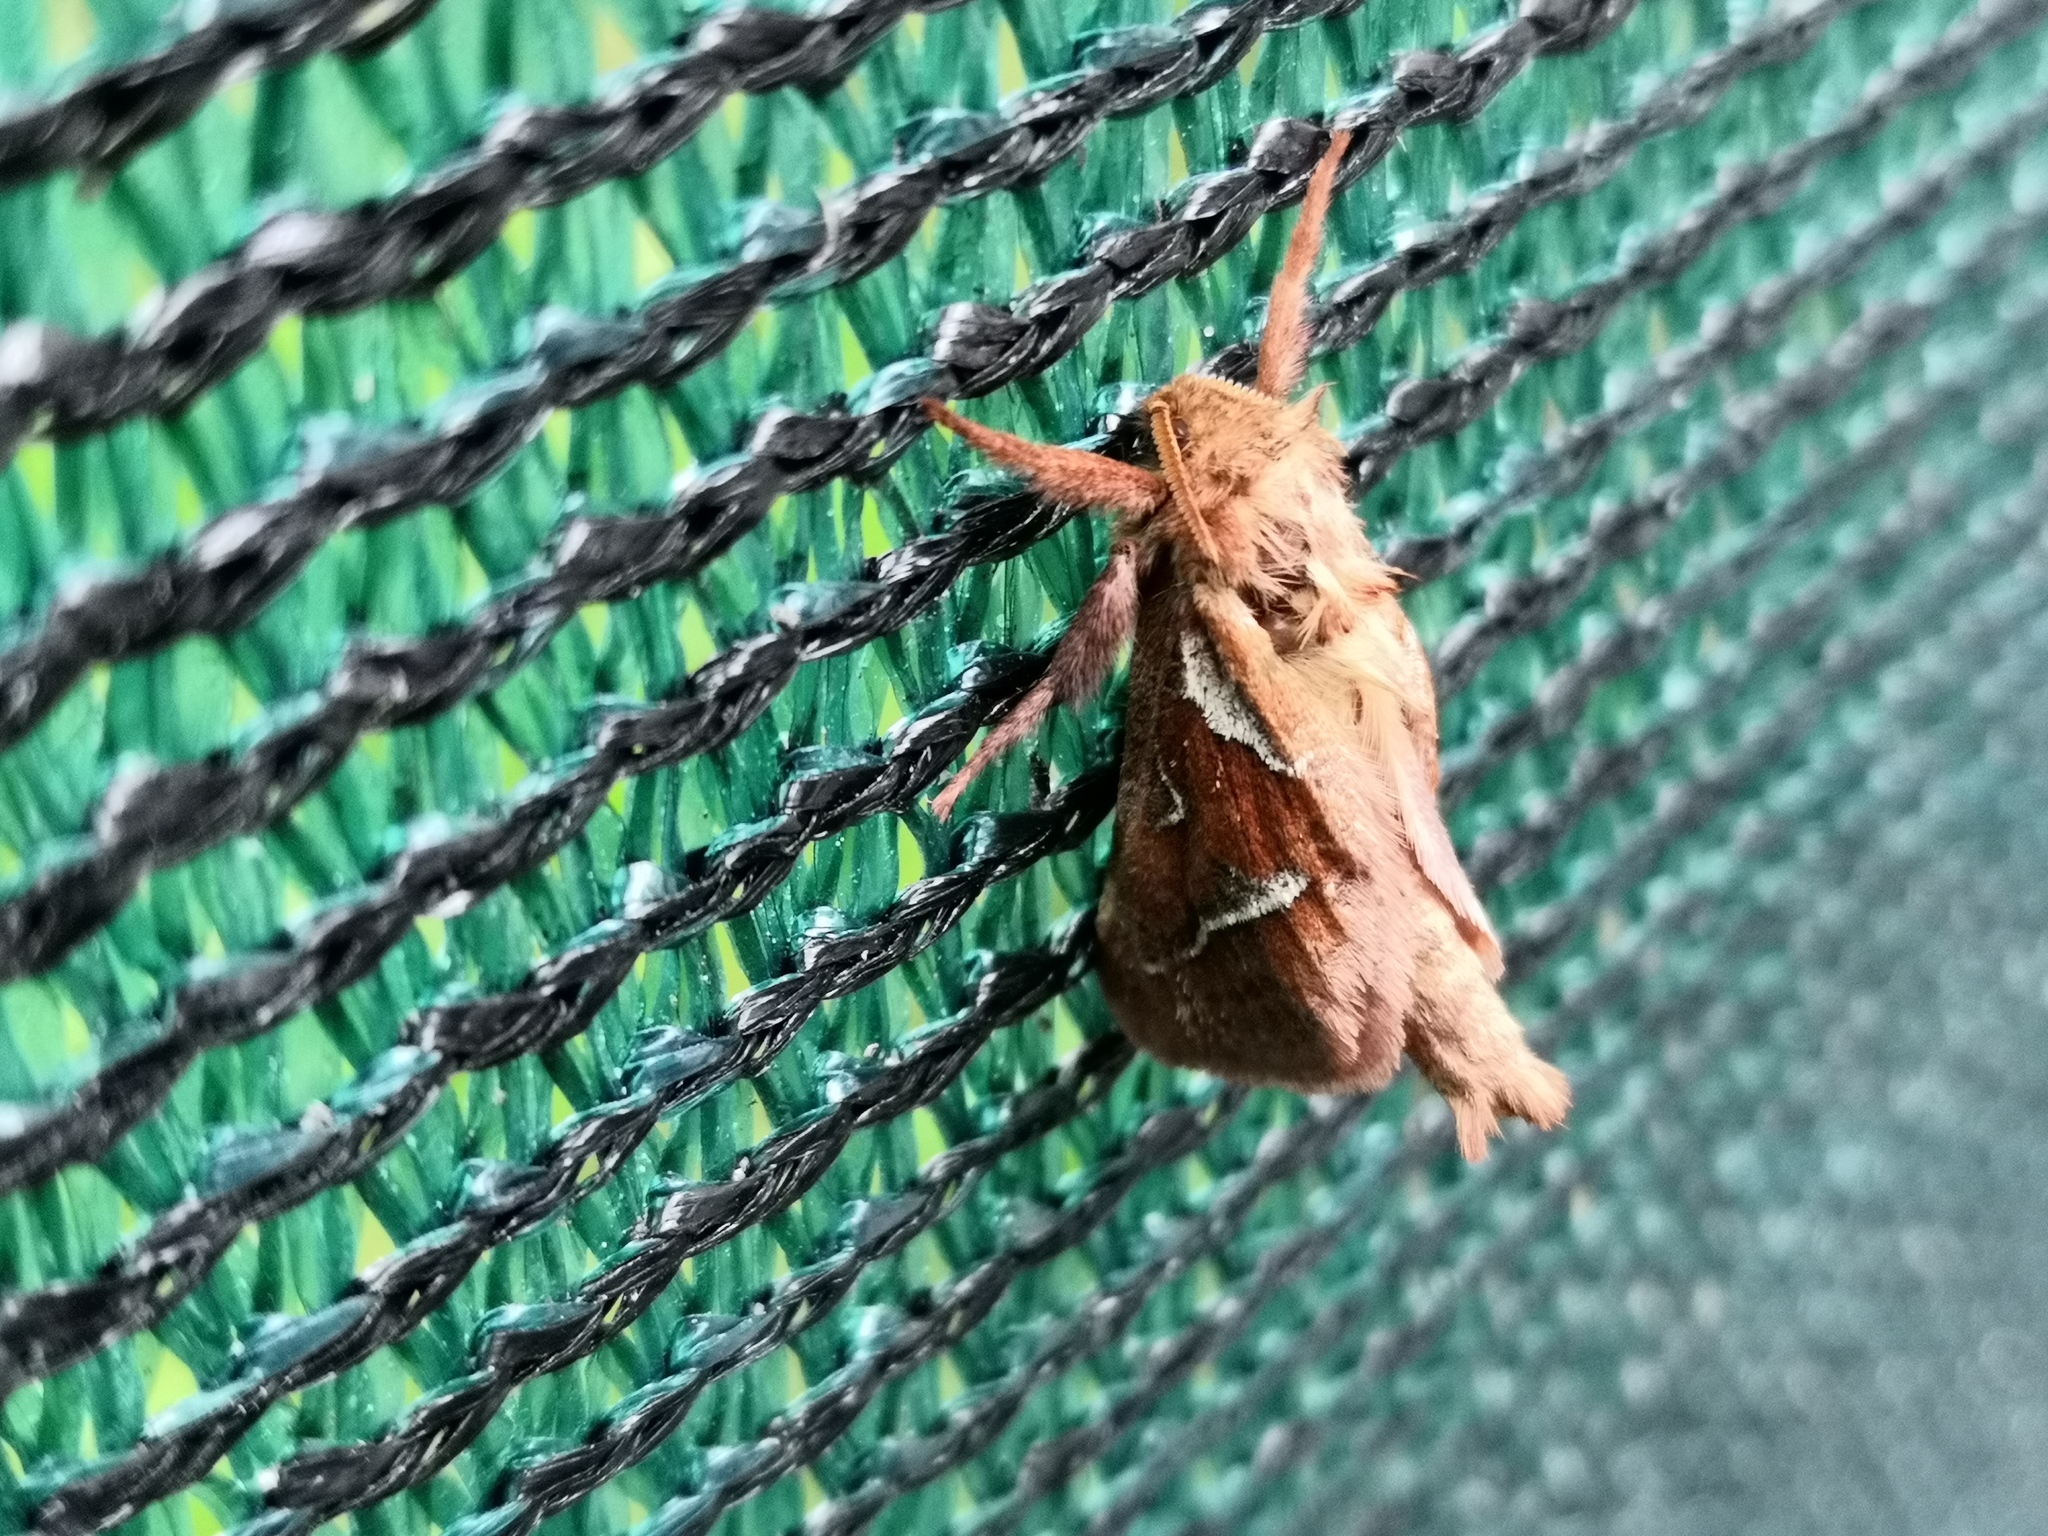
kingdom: Animalia
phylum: Arthropoda
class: Insecta
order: Lepidoptera
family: Hepialidae
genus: Triodia
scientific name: Triodia sylvina
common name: Orange swift
